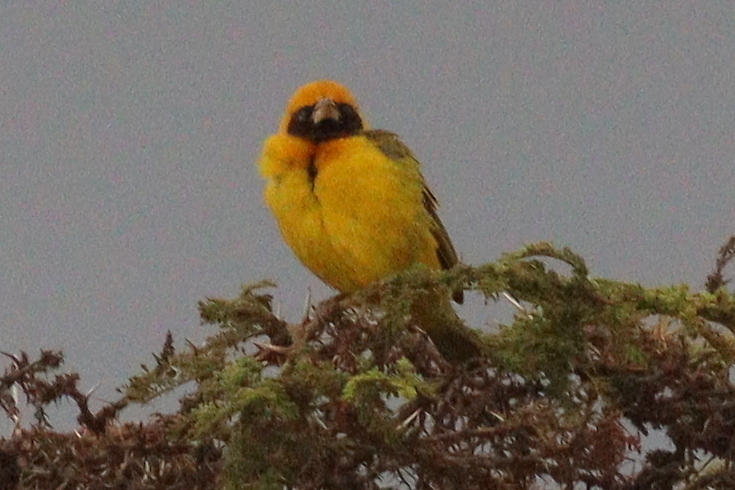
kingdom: Animalia
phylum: Chordata
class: Aves
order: Passeriformes
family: Ploceidae
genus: Ploceus
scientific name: Ploceus spekei
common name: Speke's weaver
